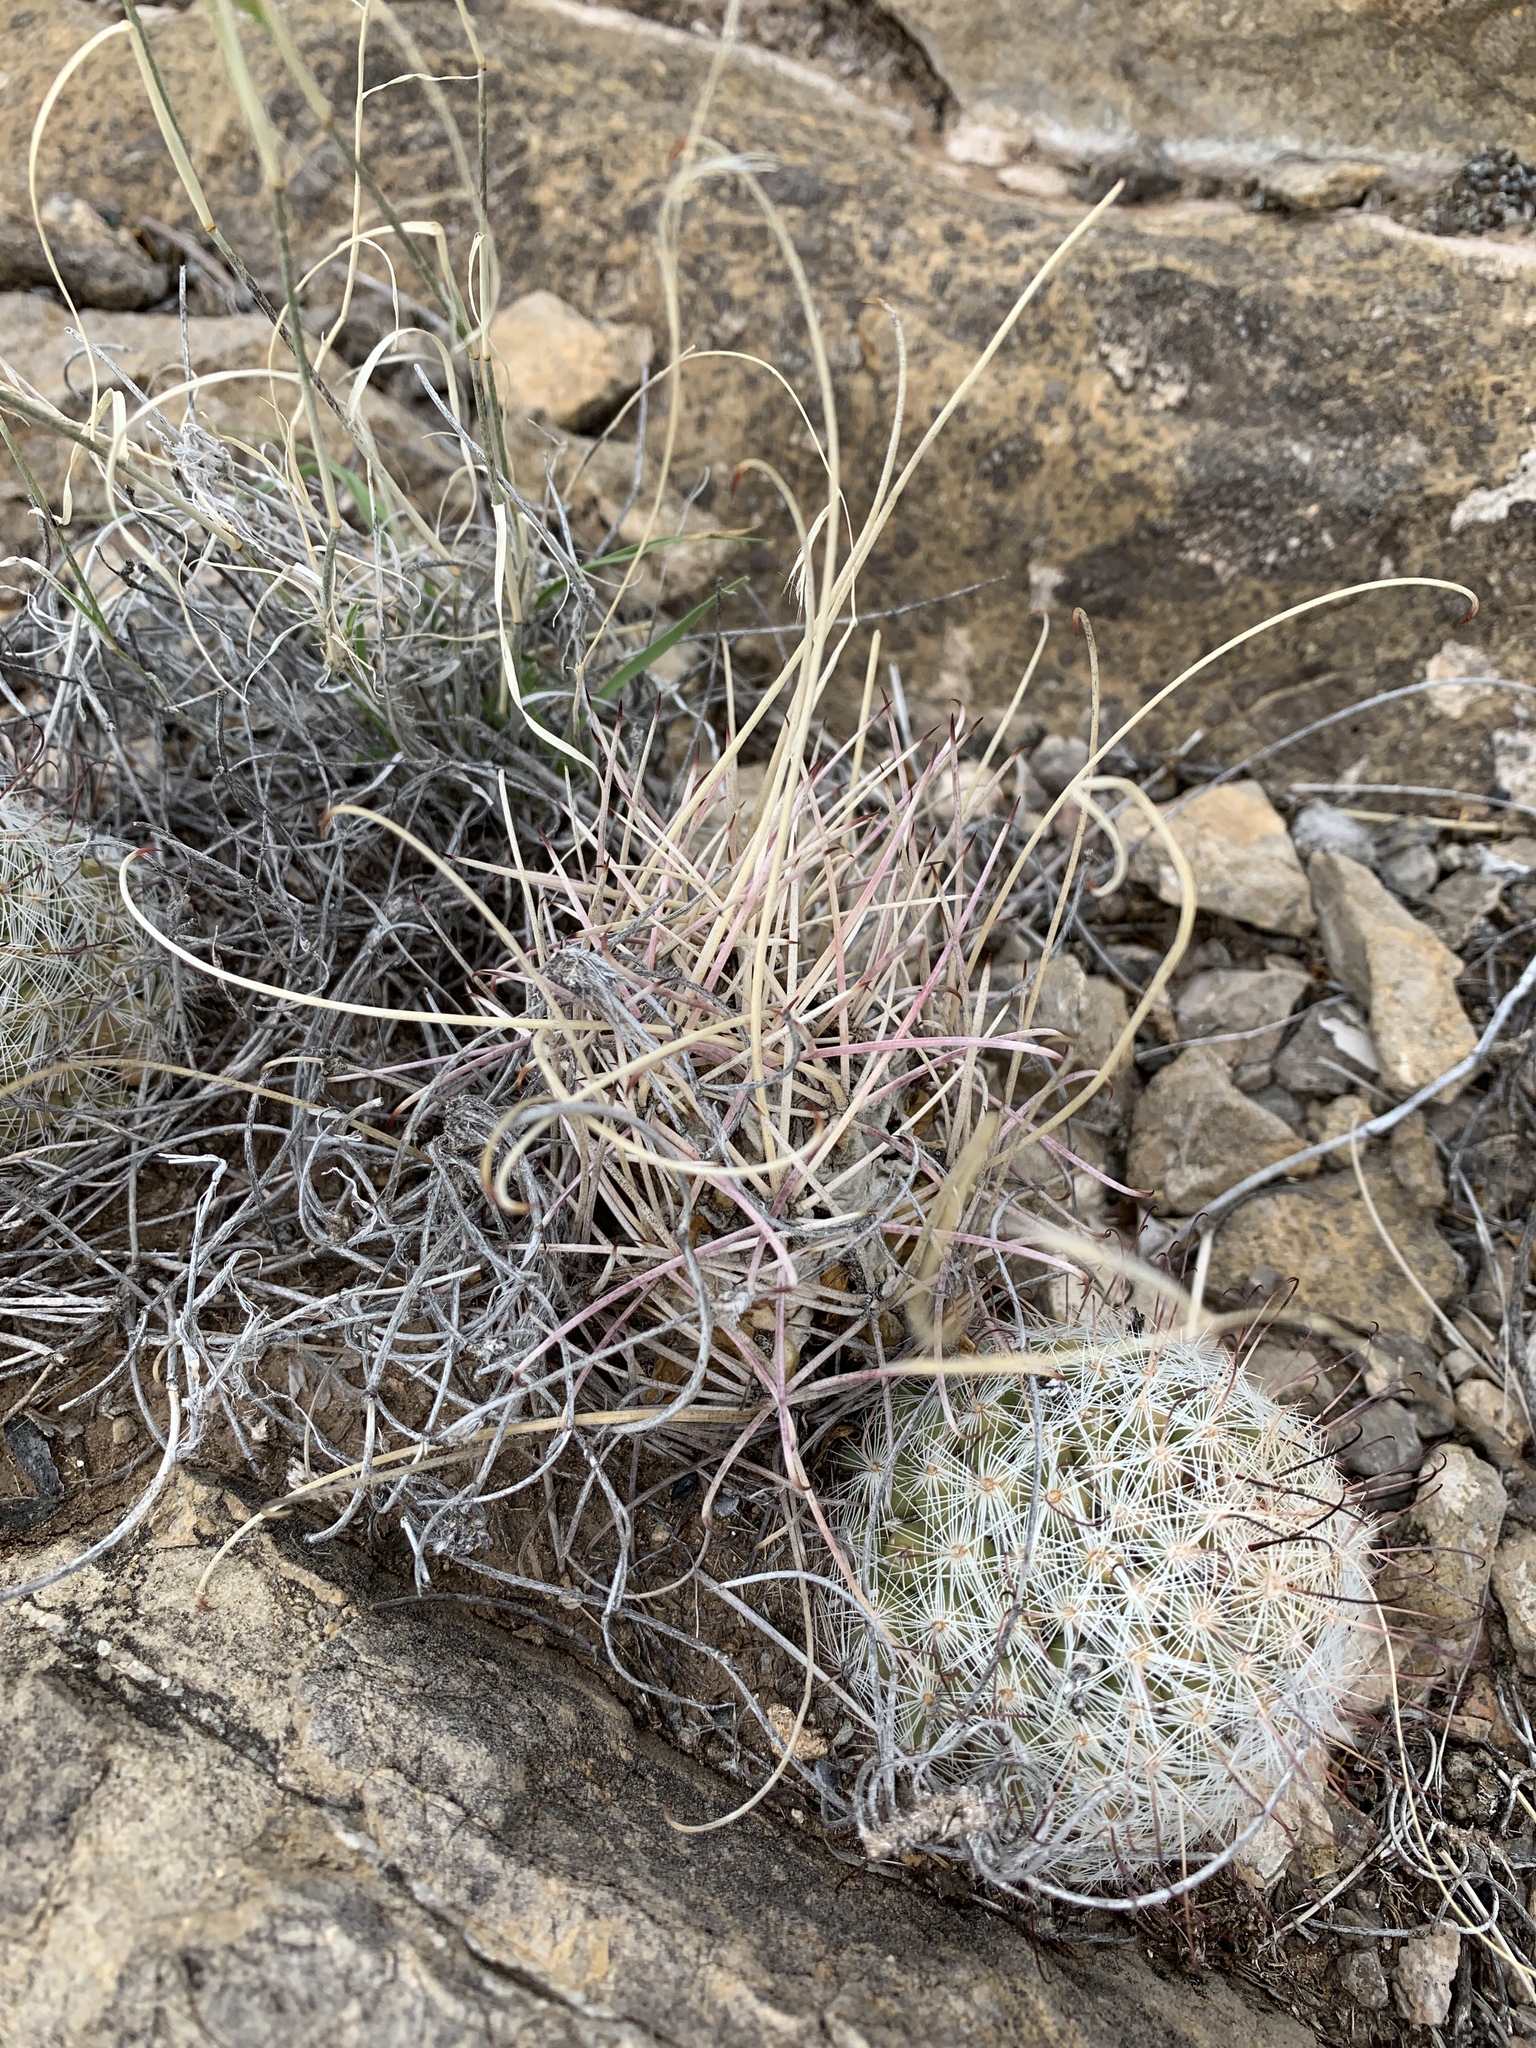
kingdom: Plantae
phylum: Tracheophyta
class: Magnoliopsida
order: Caryophyllales
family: Cactaceae
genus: Ferocactus
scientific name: Ferocactus uncinatus
